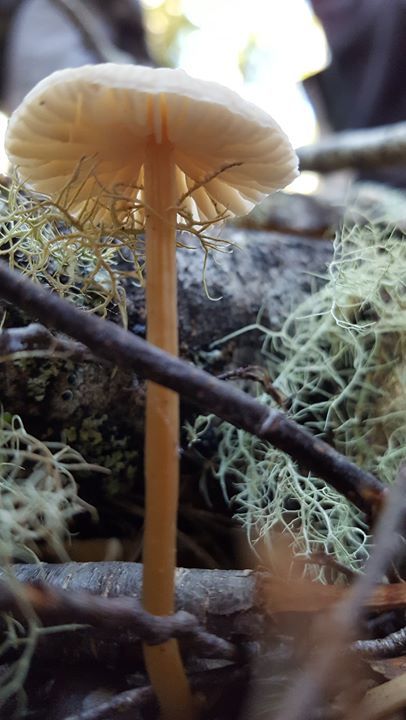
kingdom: Fungi
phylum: Basidiomycota
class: Agaricomycetes
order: Agaricales
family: Hydnangiaceae
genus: Laccaria
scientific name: Laccaria masoniae
